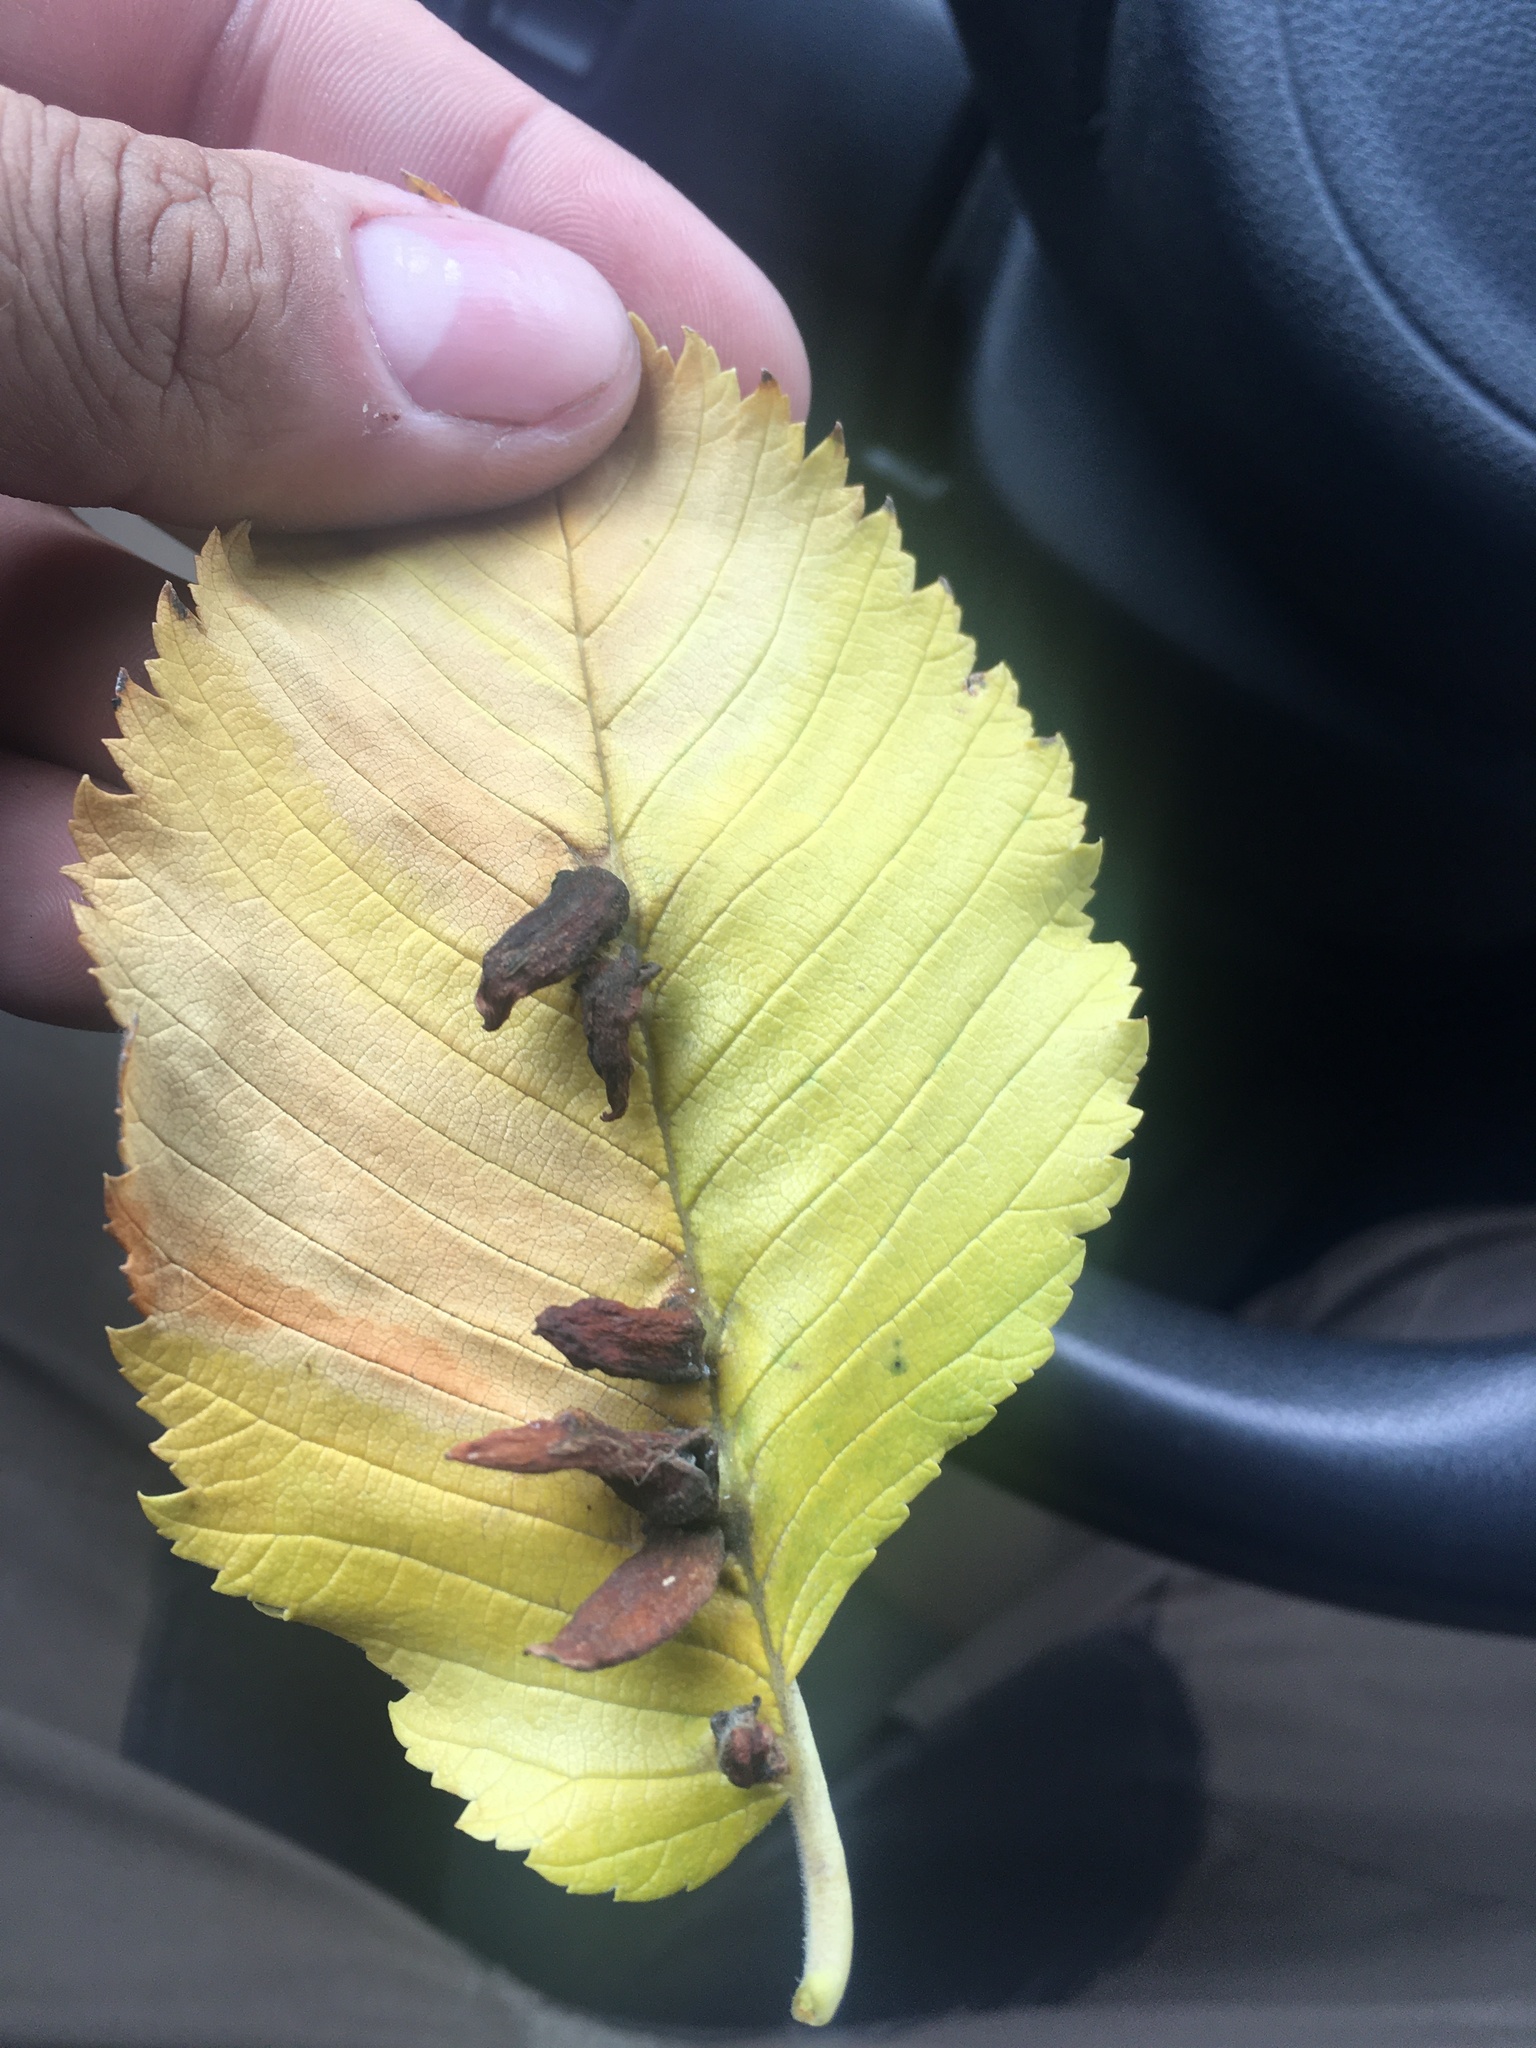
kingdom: Animalia
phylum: Arthropoda
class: Arachnida
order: Trombidiformes
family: Eriophyidae
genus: Aceria
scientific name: Aceria
